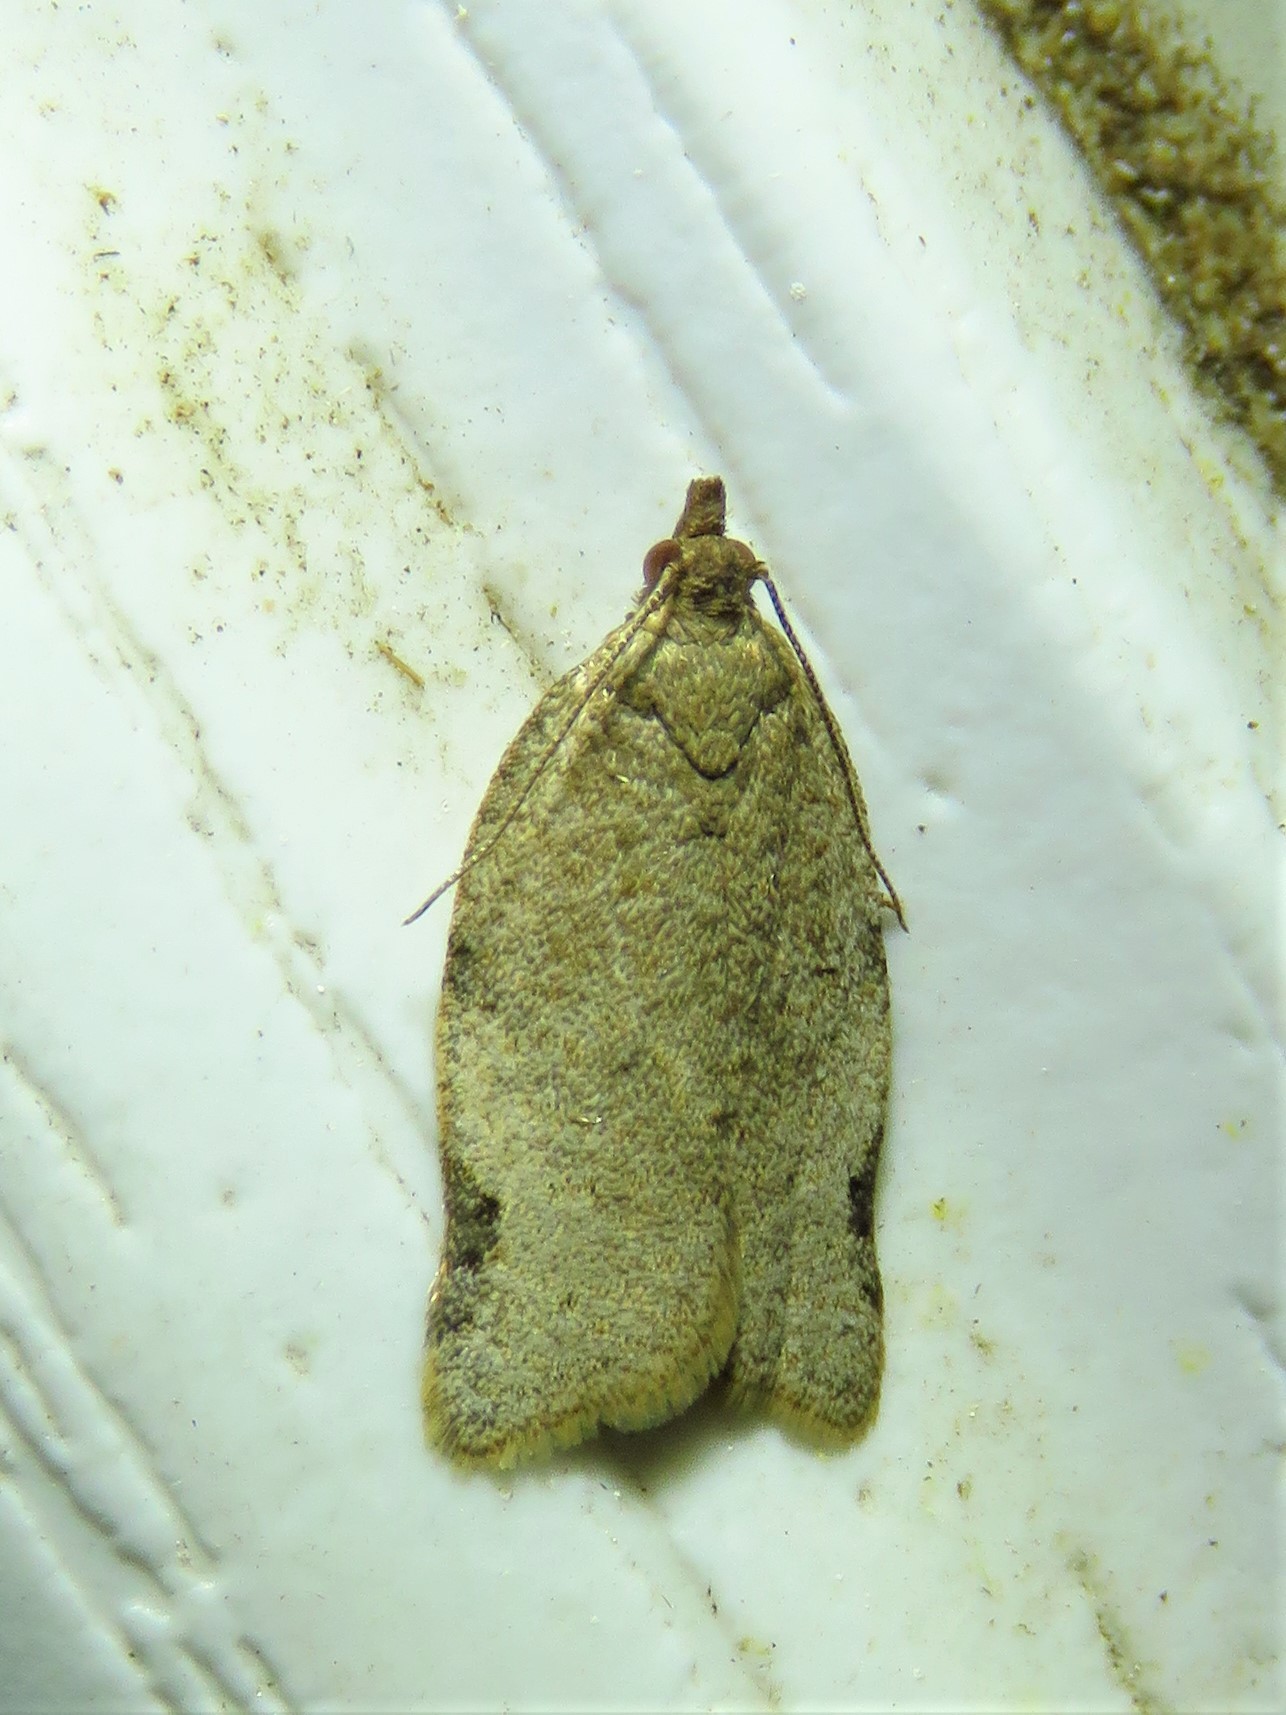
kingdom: Animalia
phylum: Arthropoda
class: Insecta
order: Lepidoptera
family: Tortricidae
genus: Clepsis
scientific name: Clepsis virescana
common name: Greenish apple moth
